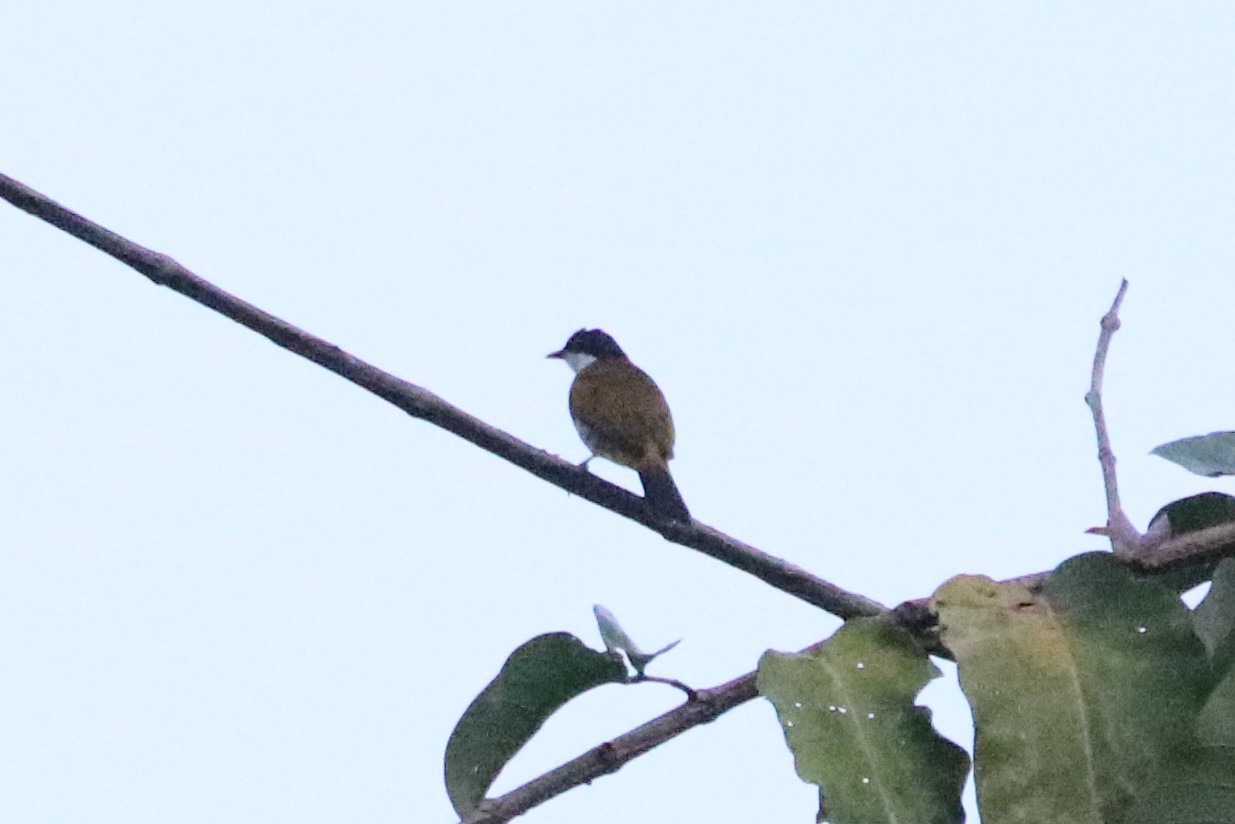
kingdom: Animalia
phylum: Chordata
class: Aves
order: Passeriformes
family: Pycnonotidae
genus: Rubigula
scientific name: Rubigula squamatus
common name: Scaly-breasted bulbul
